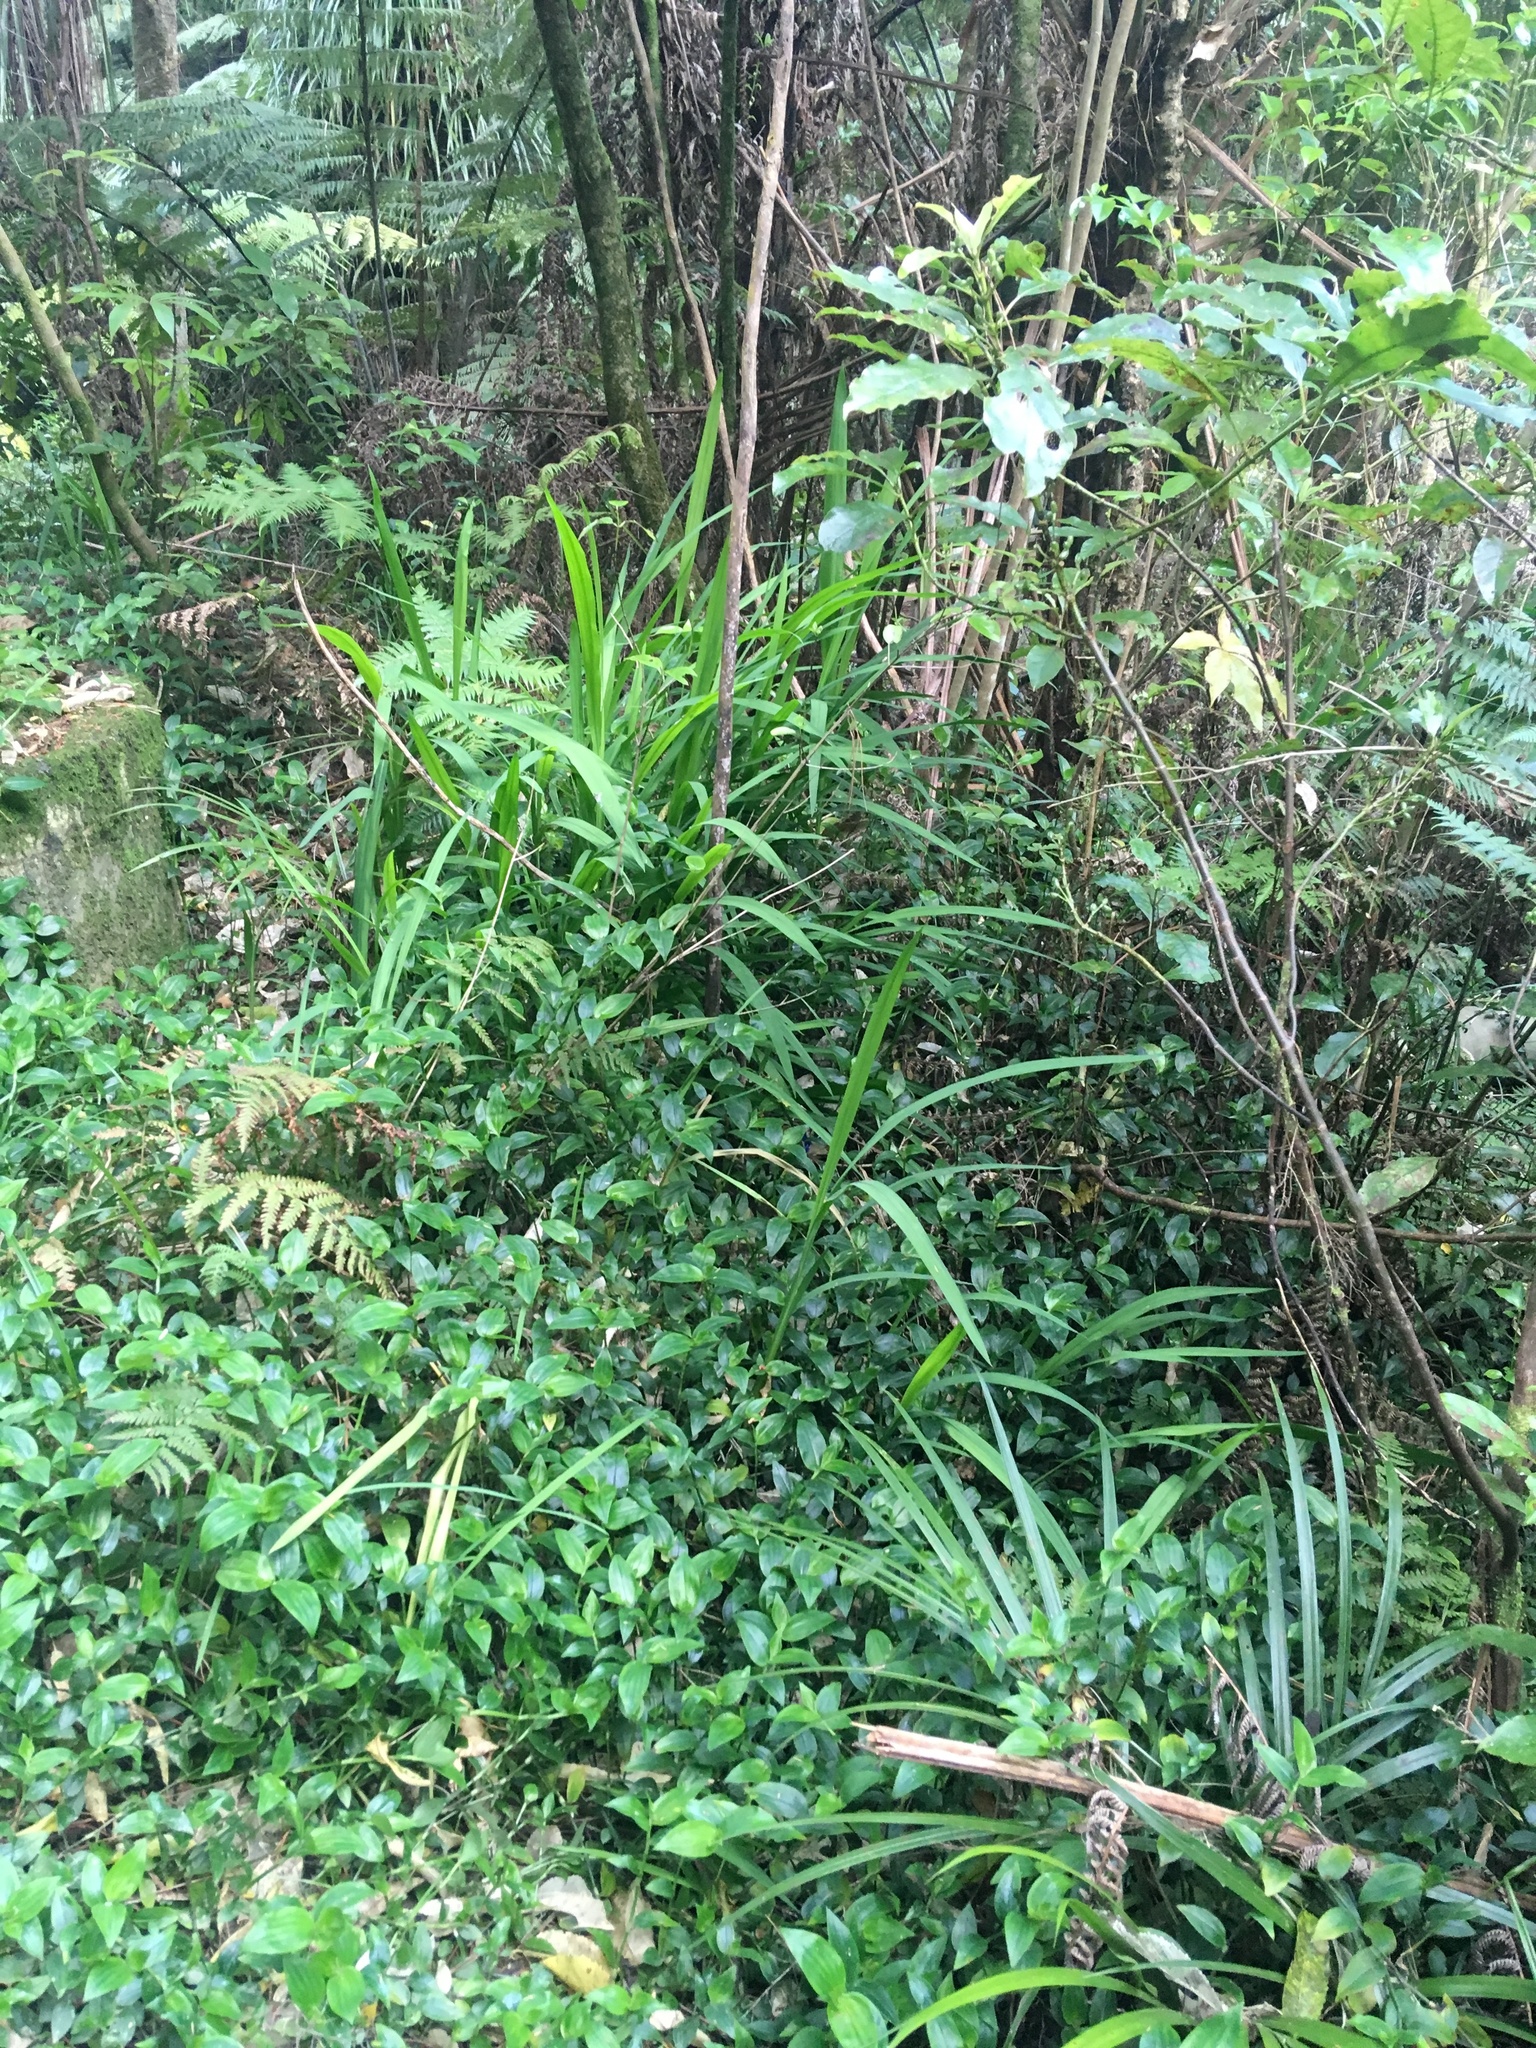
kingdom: Plantae
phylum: Tracheophyta
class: Liliopsida
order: Asparagales
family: Iridaceae
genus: Crocosmia
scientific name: Crocosmia crocosmiiflora
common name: Montbretia
